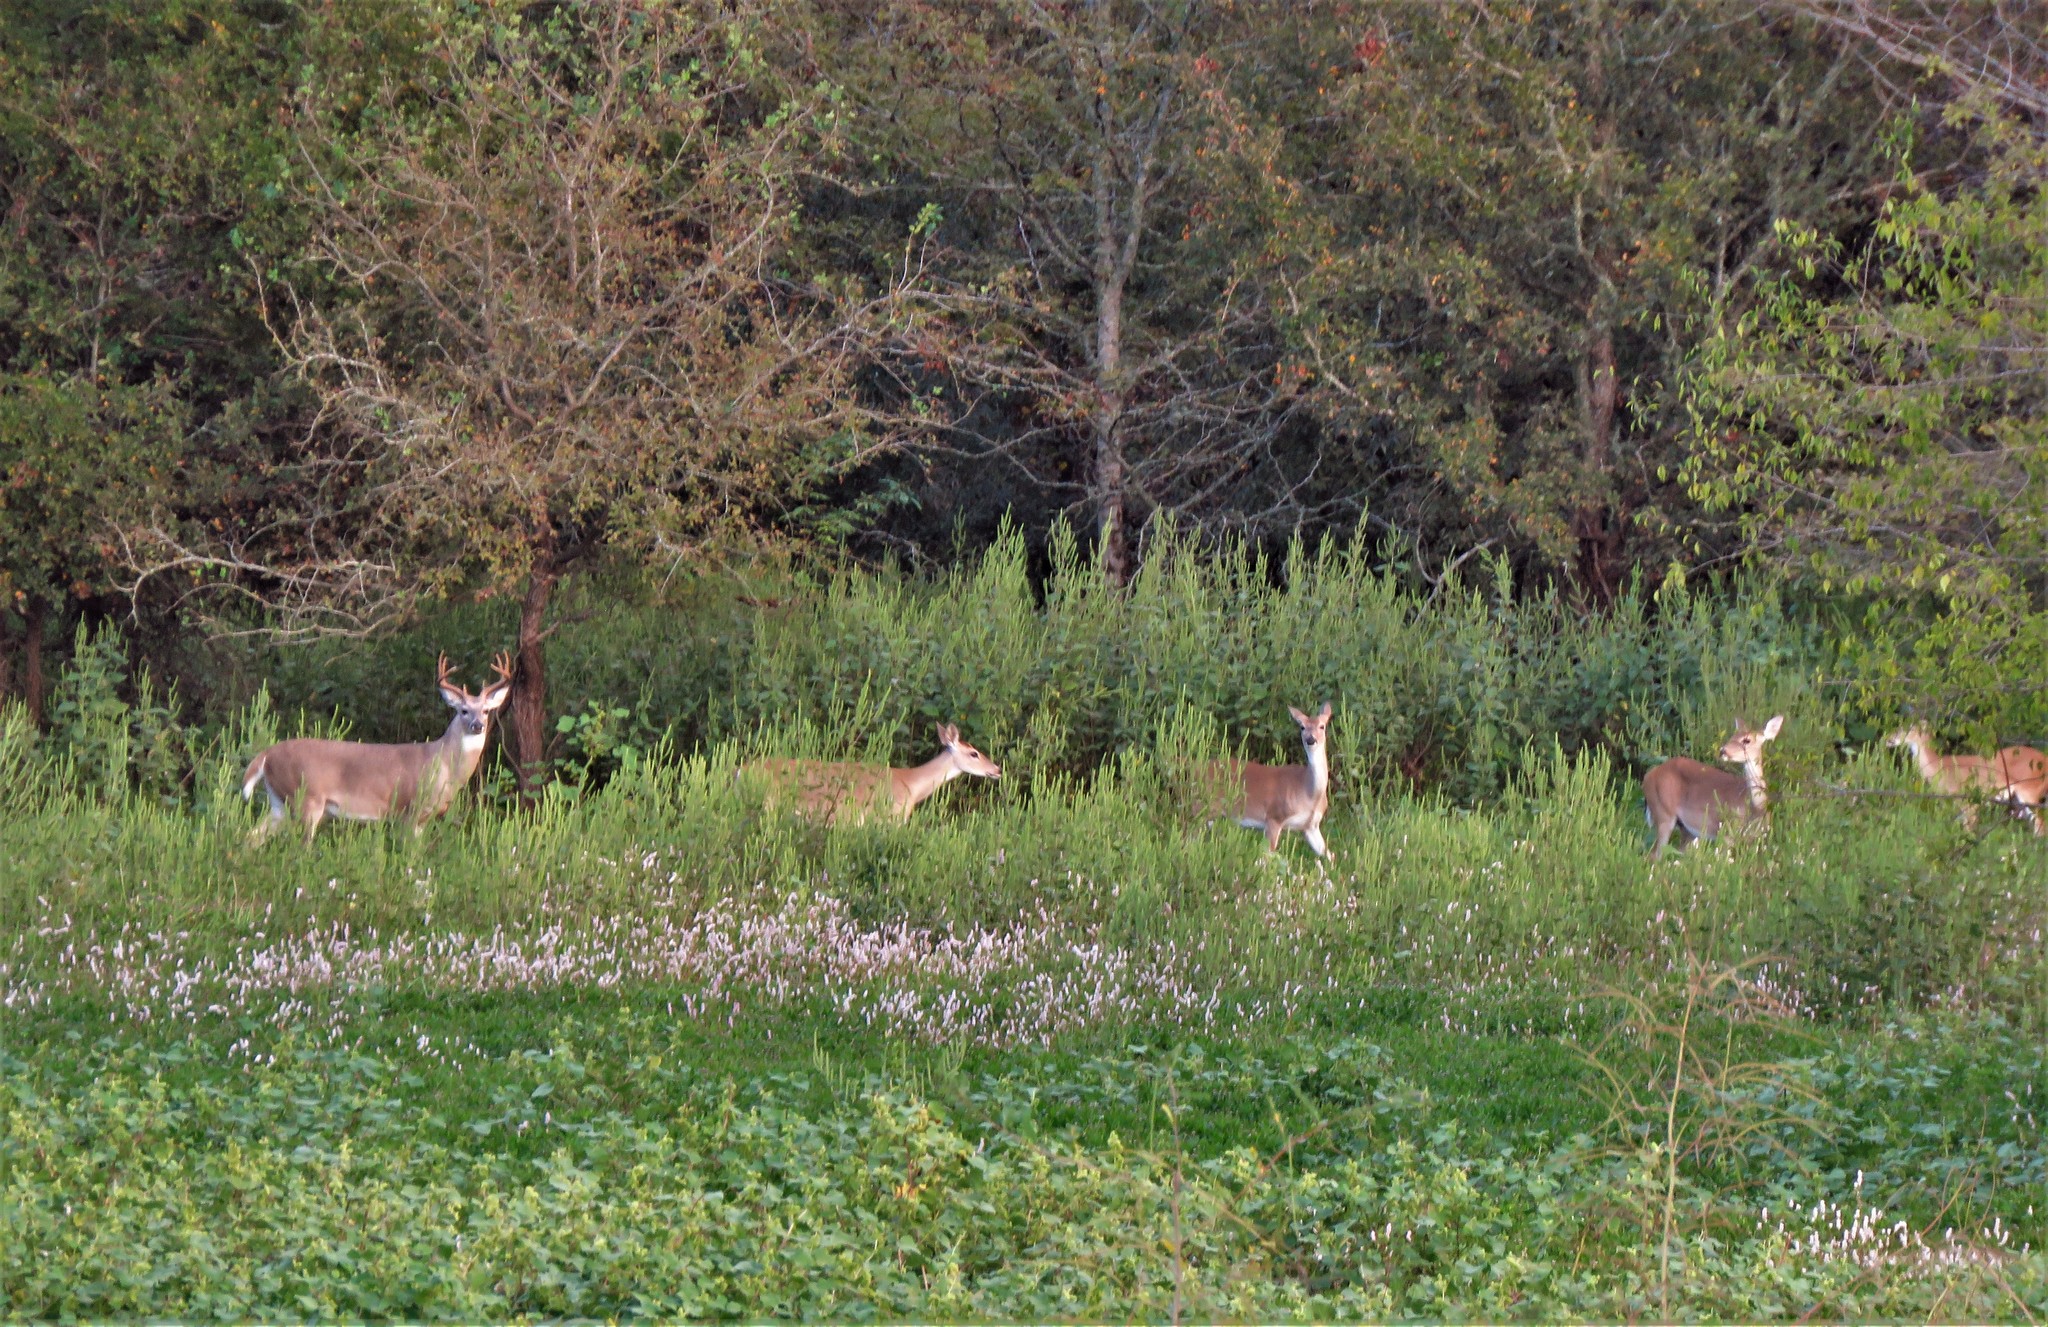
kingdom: Animalia
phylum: Chordata
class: Mammalia
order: Artiodactyla
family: Cervidae
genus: Odocoileus
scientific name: Odocoileus virginianus
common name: White-tailed deer
